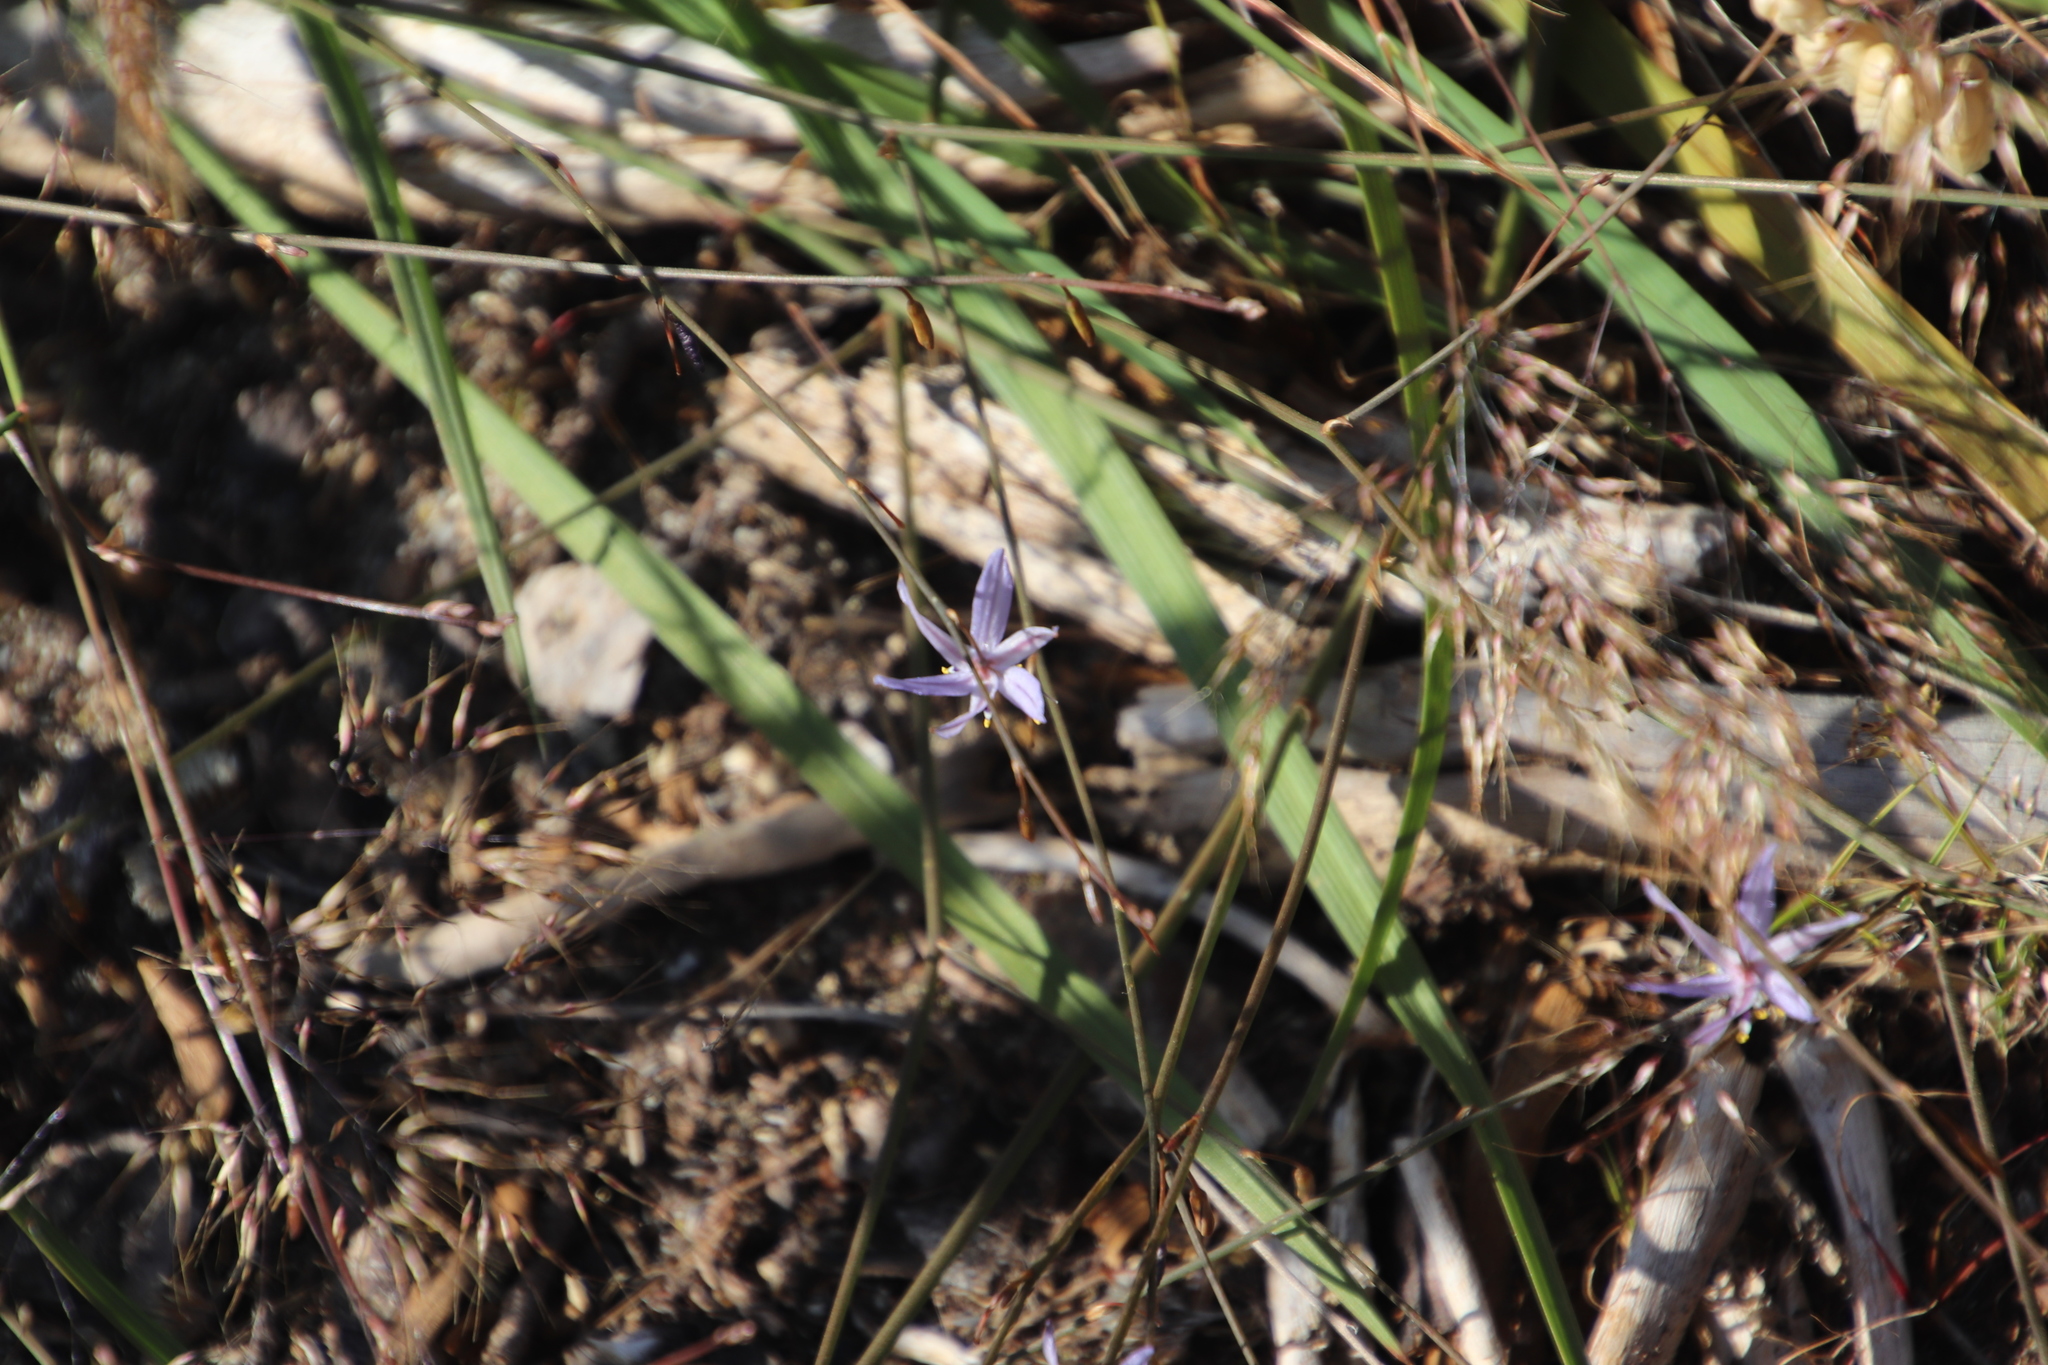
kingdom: Plantae
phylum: Tracheophyta
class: Liliopsida
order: Asparagales
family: Asphodelaceae
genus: Caesia
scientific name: Caesia contorta
